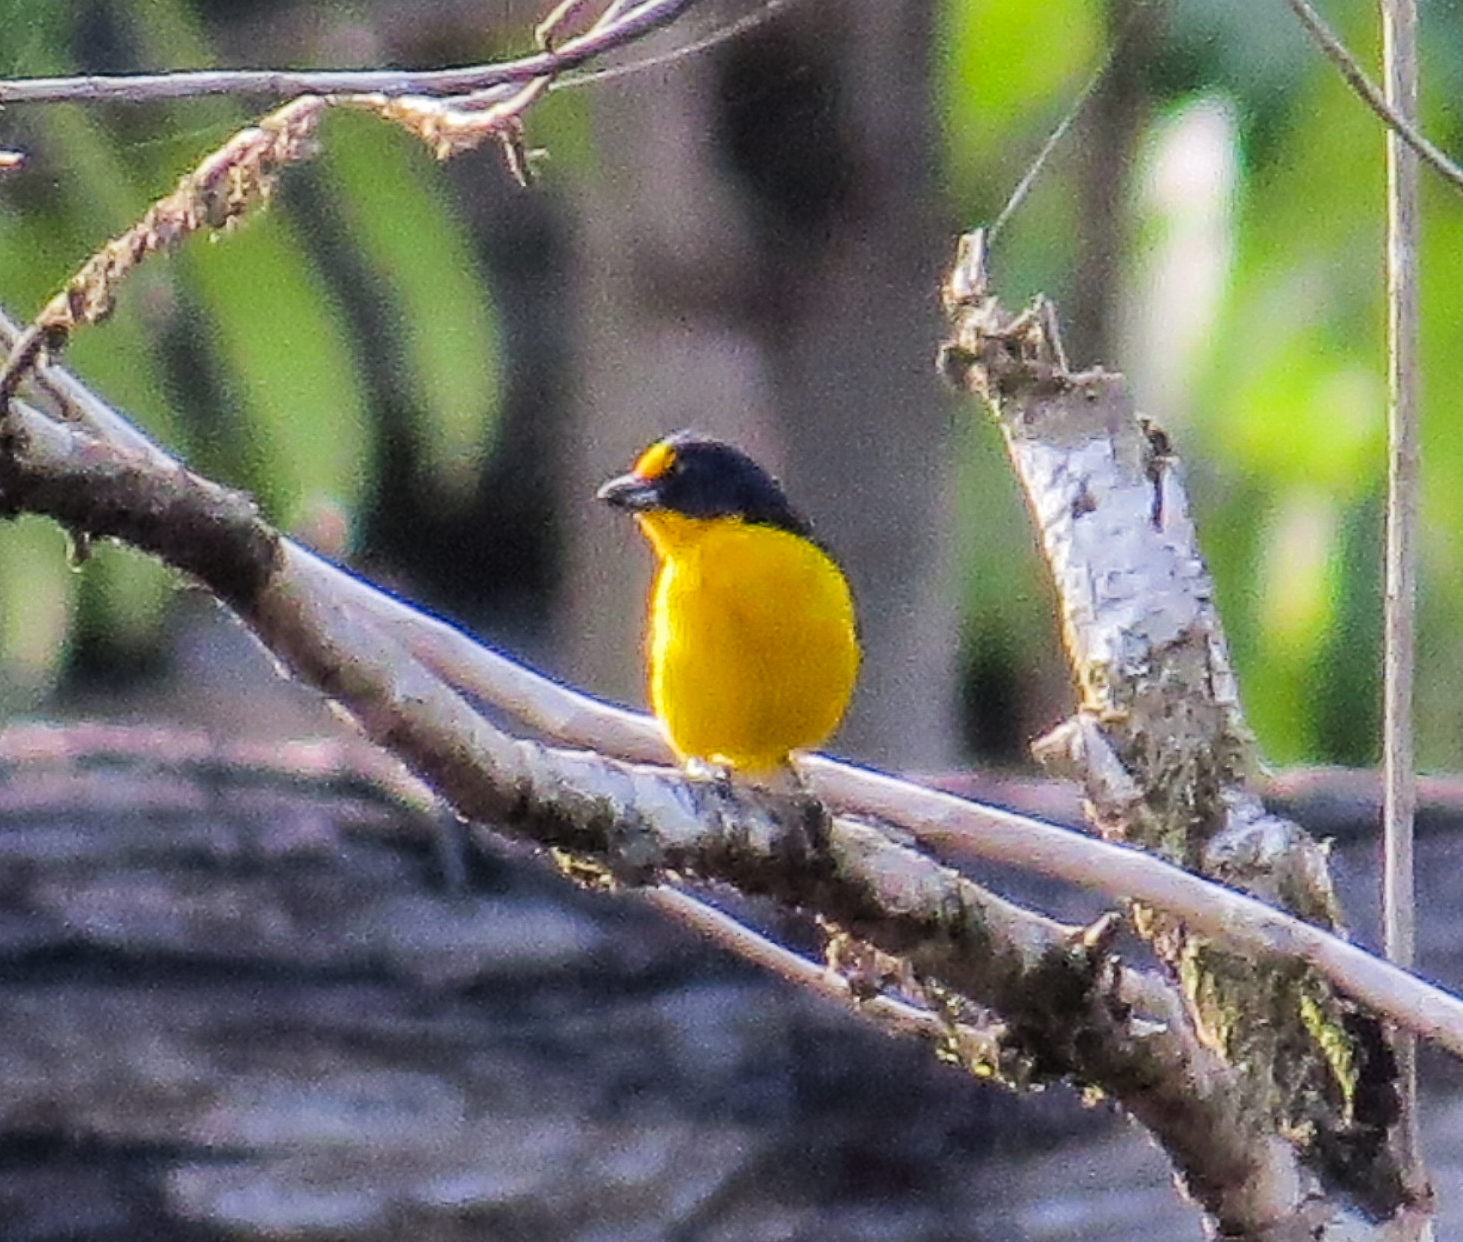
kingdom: Animalia
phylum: Chordata
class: Aves
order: Passeriformes
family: Fringillidae
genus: Euphonia
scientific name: Euphonia violacea
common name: Violaceous euphonia
